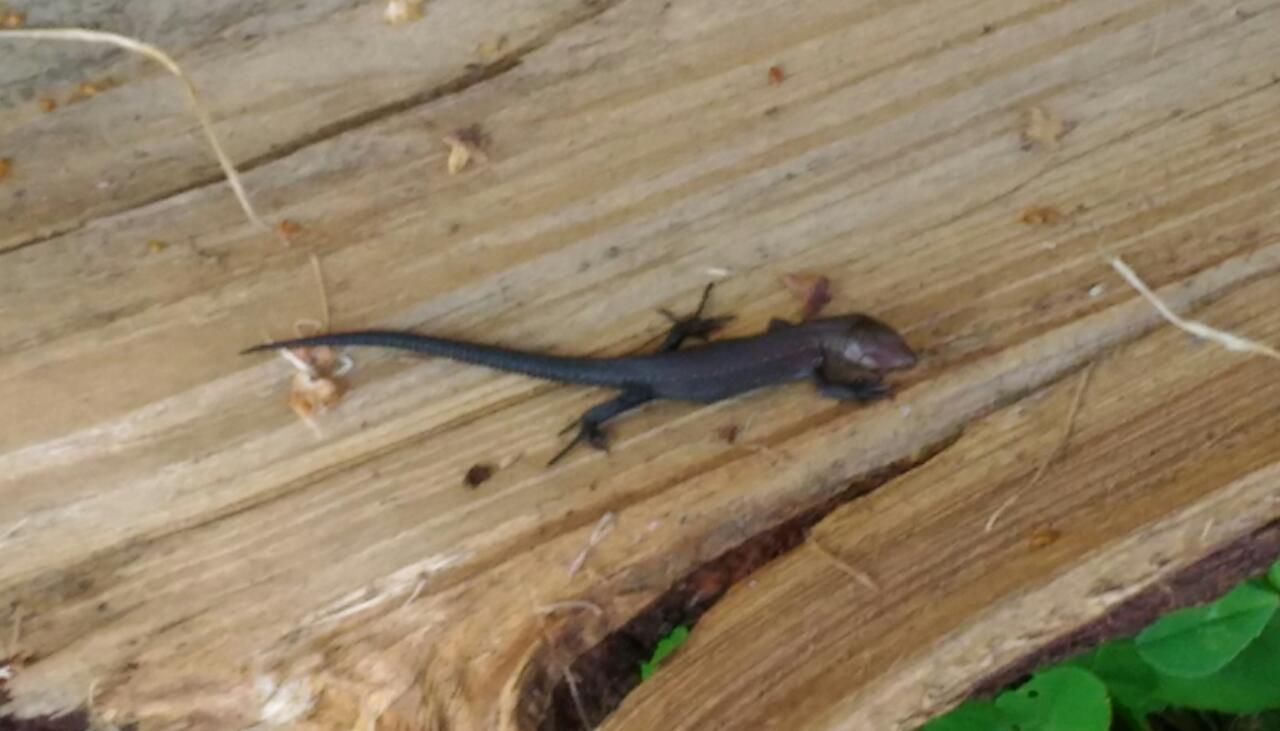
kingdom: Animalia
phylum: Chordata
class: Squamata
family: Lacertidae
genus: Zootoca
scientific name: Zootoca vivipara
